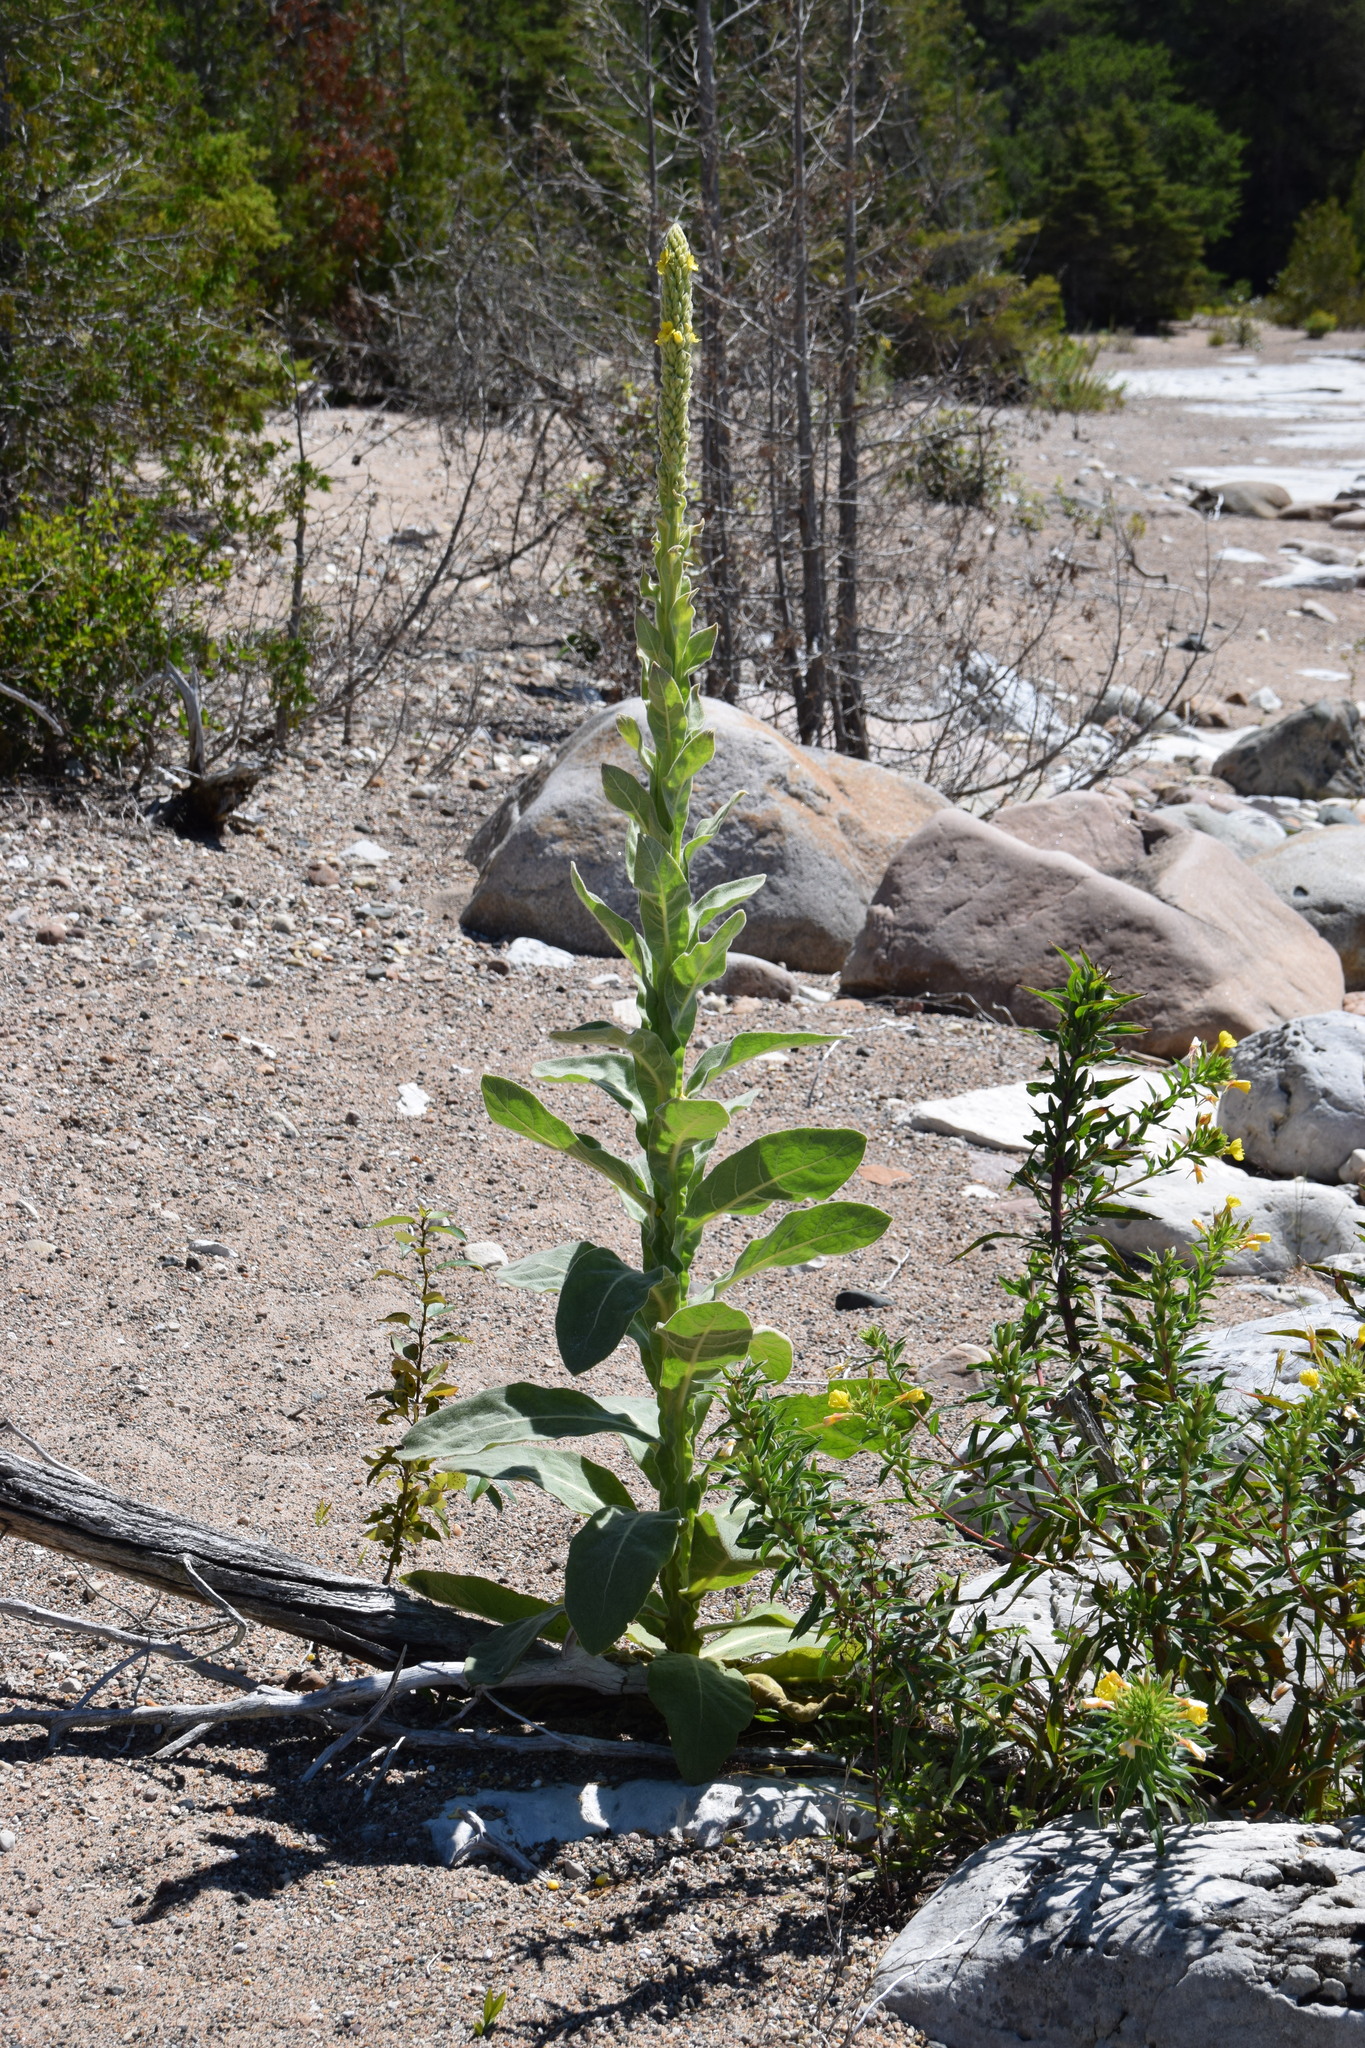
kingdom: Plantae
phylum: Tracheophyta
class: Magnoliopsida
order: Lamiales
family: Scrophulariaceae
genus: Verbascum
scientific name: Verbascum thapsus
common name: Common mullein
